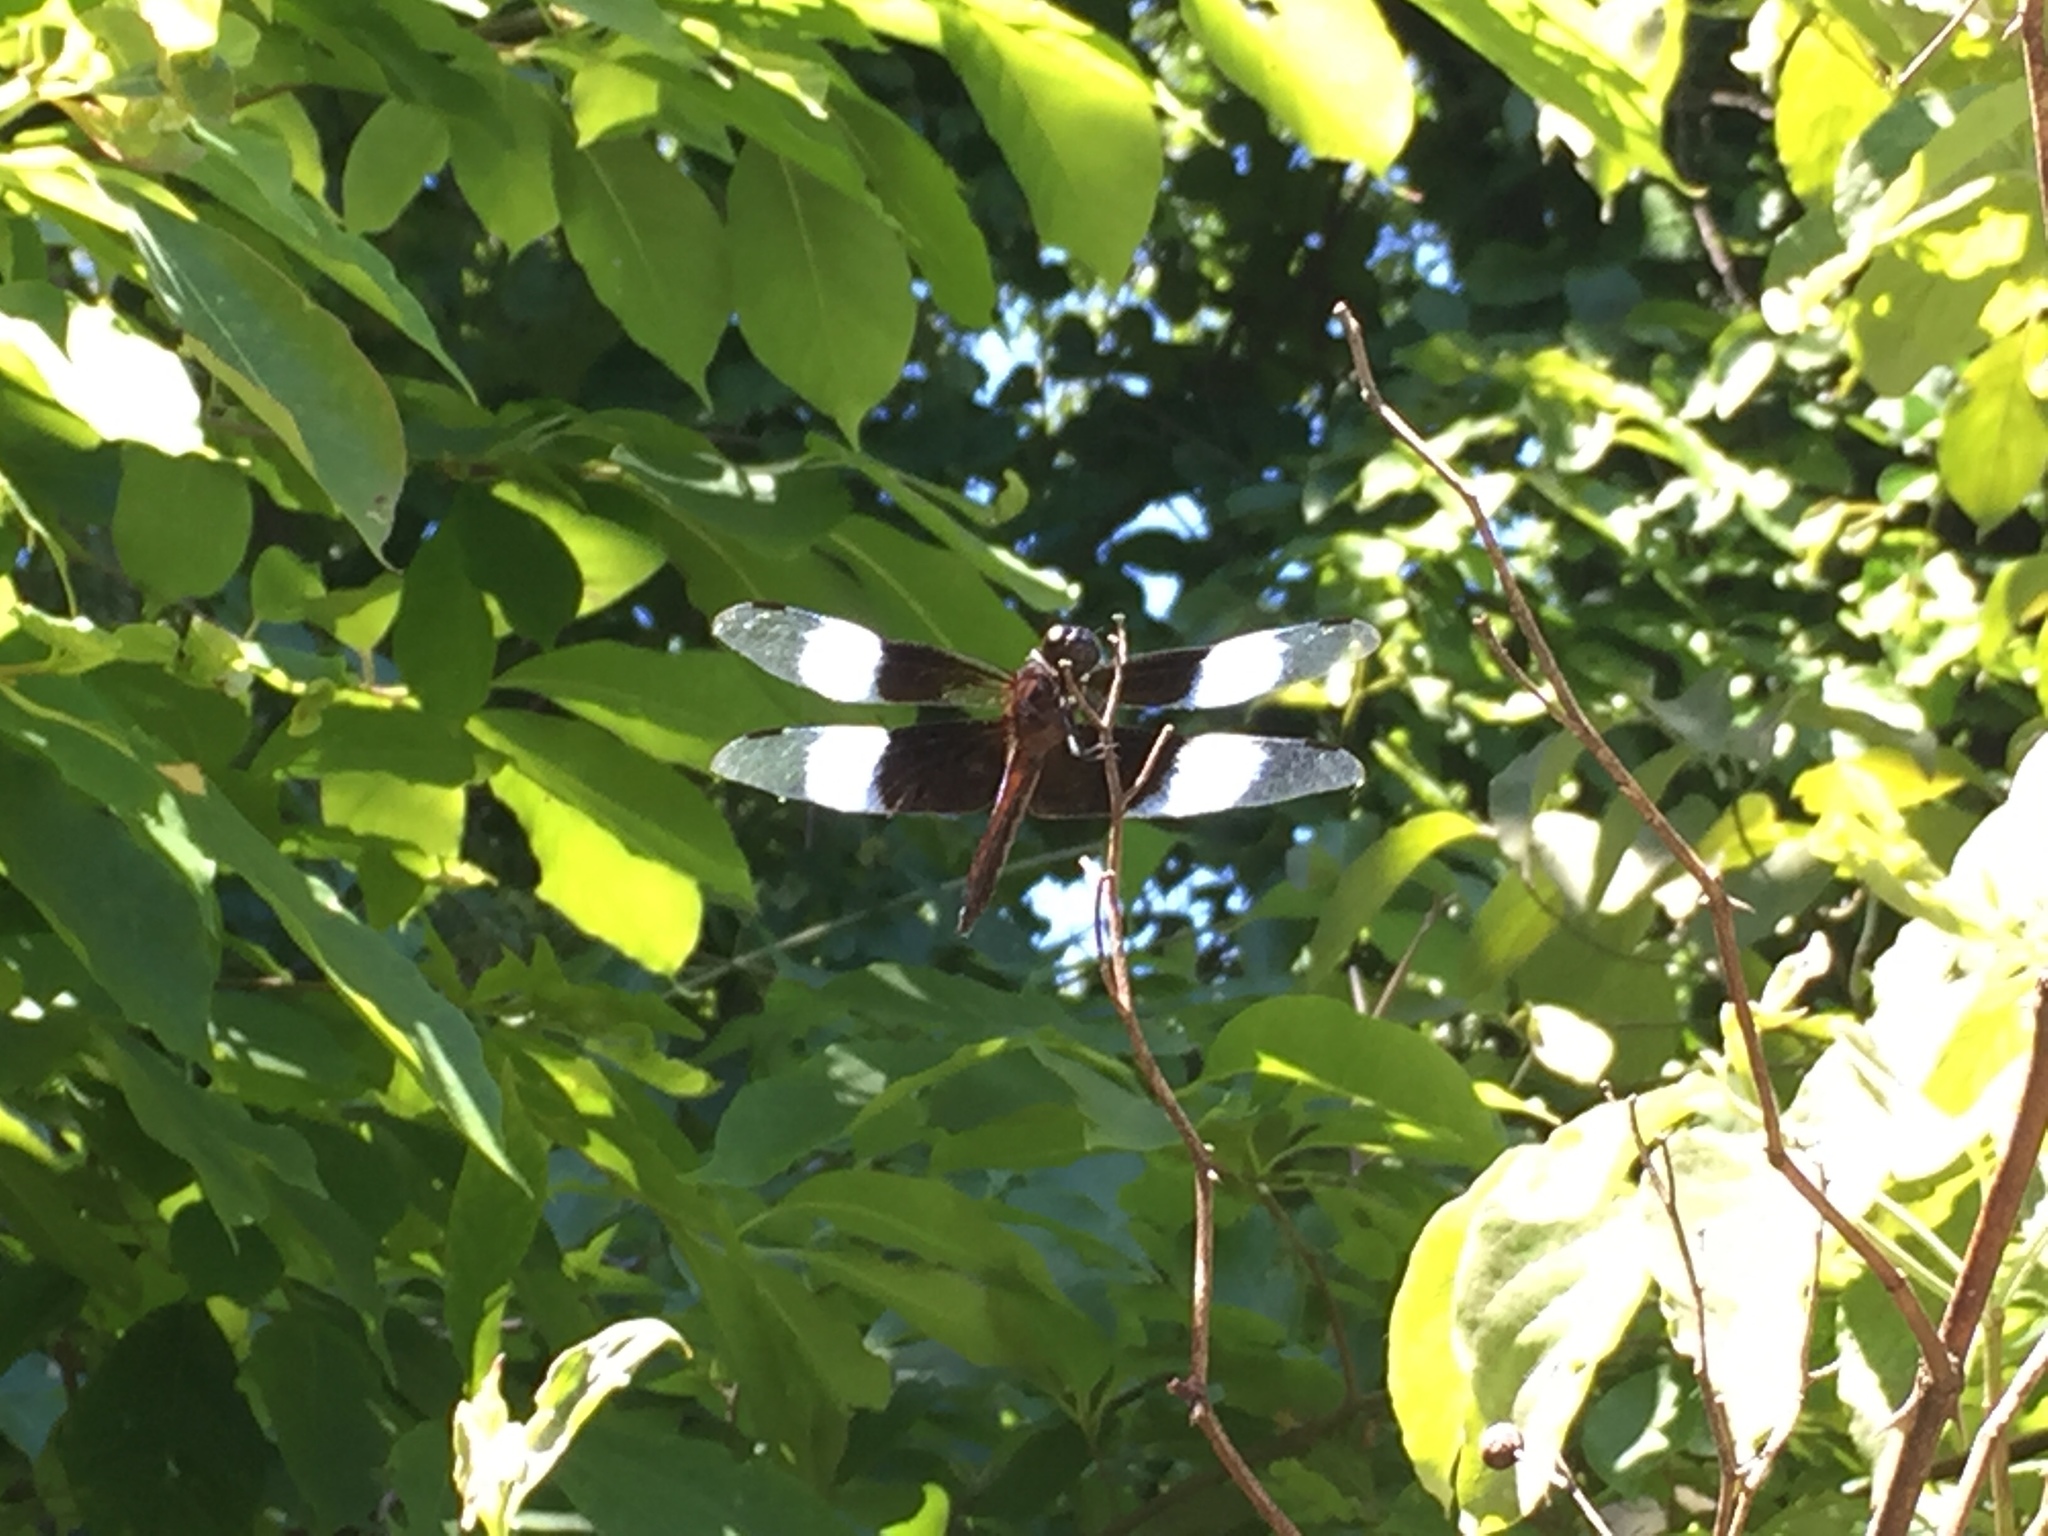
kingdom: Animalia
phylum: Arthropoda
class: Insecta
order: Odonata
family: Libellulidae
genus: Libellula
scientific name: Libellula luctuosa
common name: Widow skimmer
